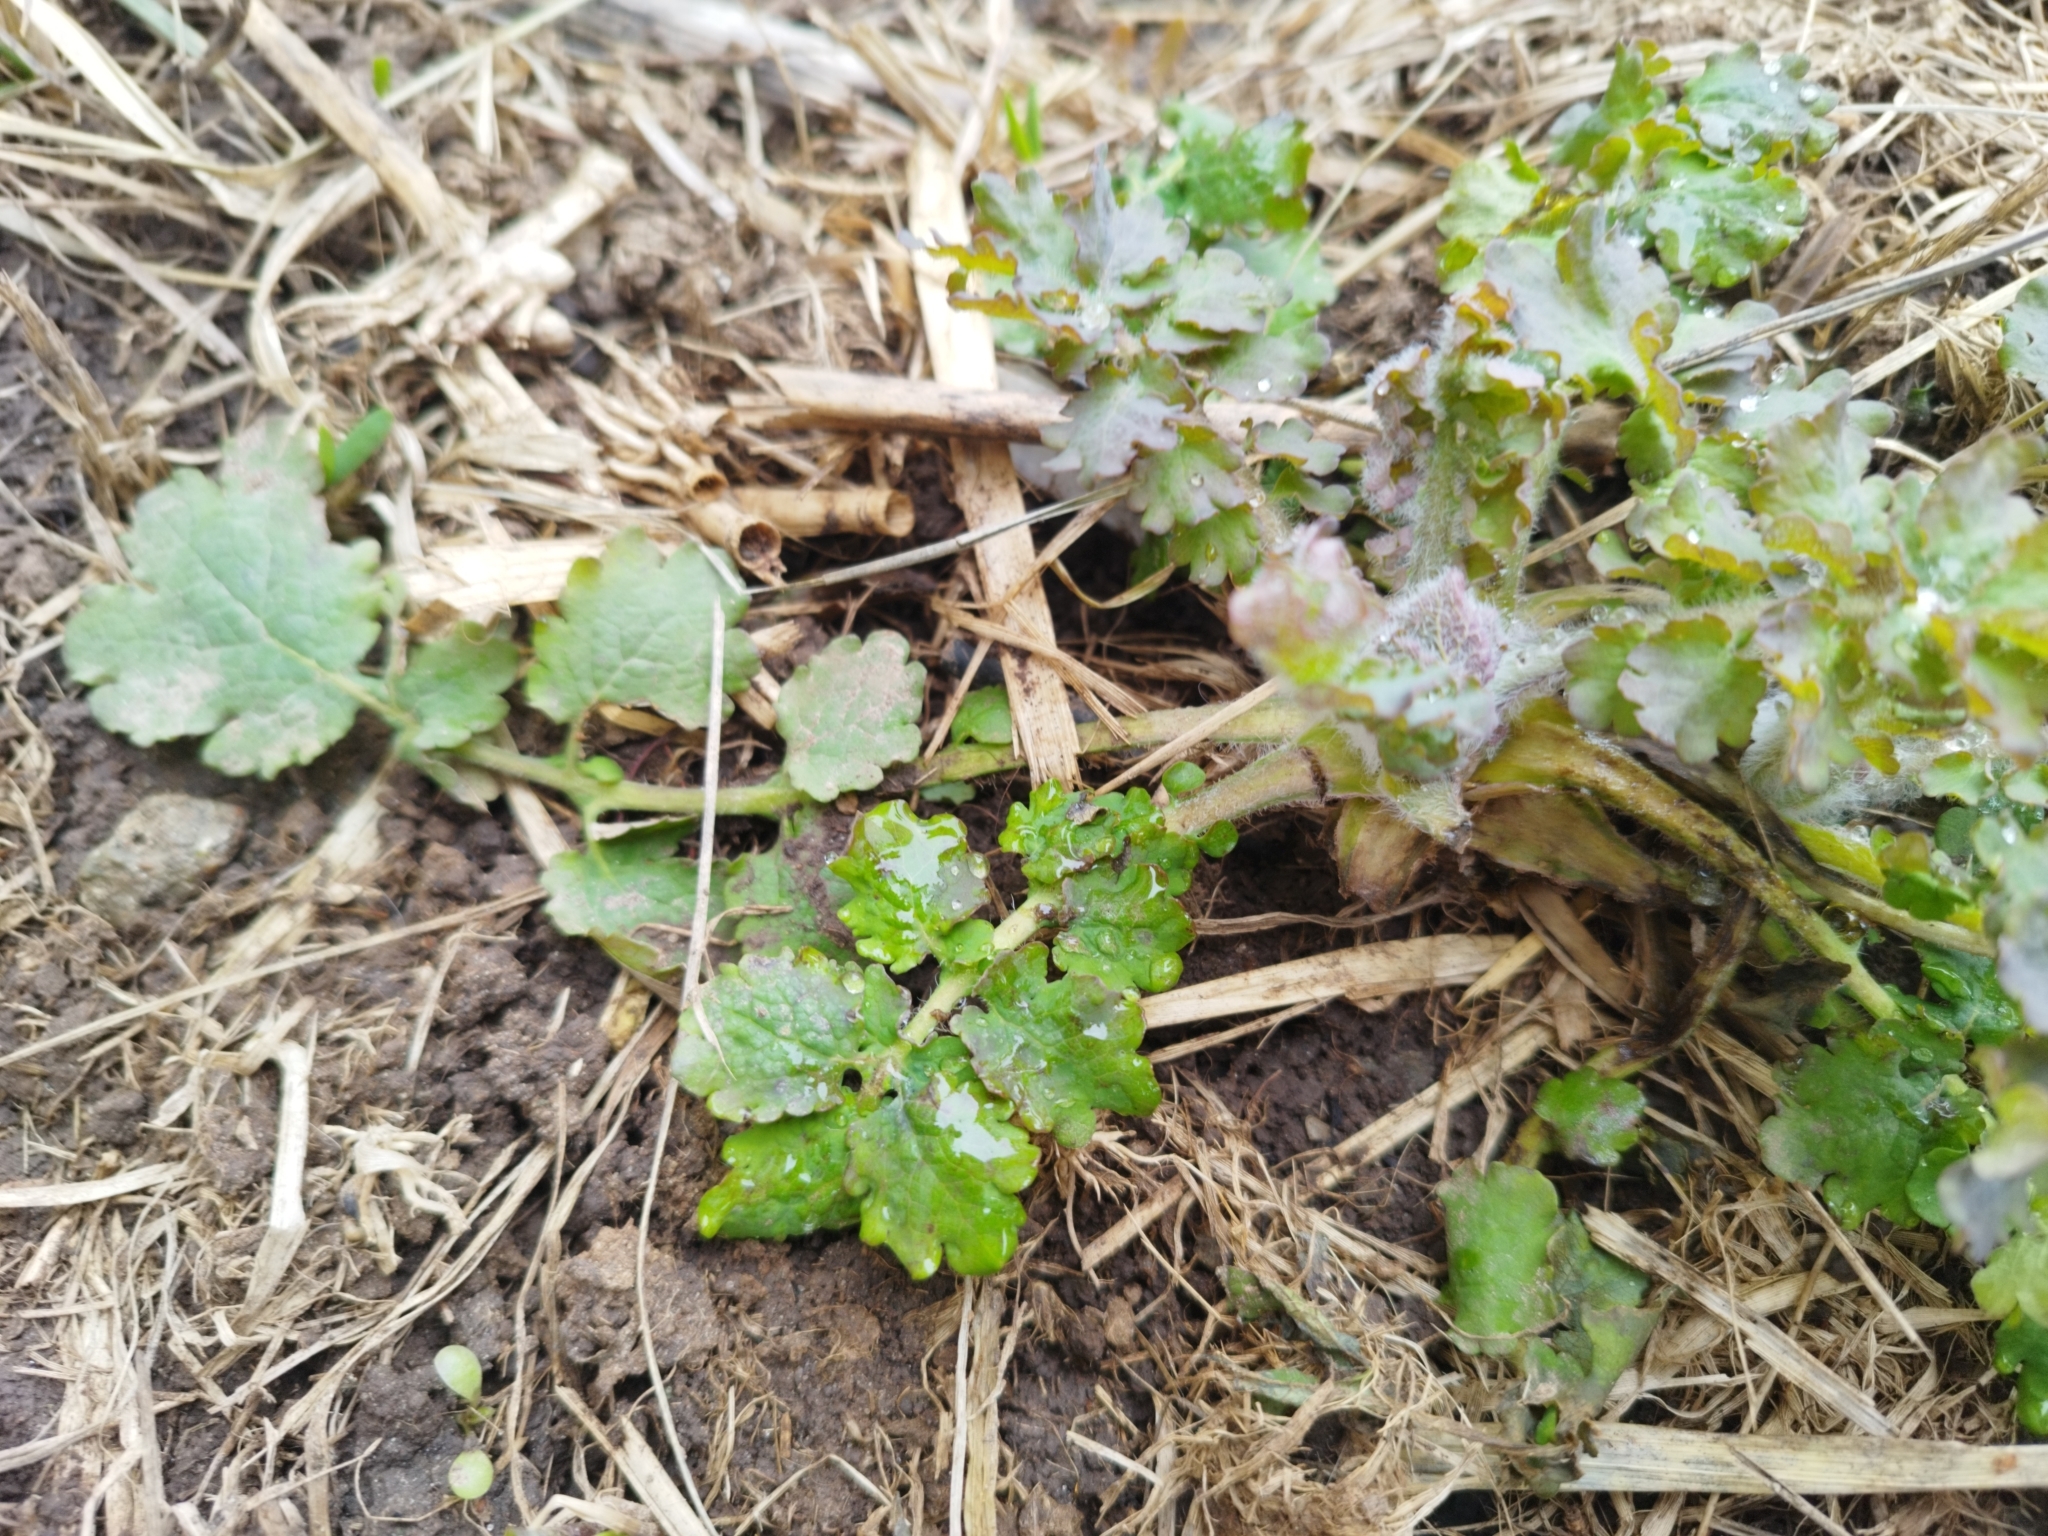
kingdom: Plantae
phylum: Tracheophyta
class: Magnoliopsida
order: Ranunculales
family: Papaveraceae
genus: Chelidonium
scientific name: Chelidonium majus
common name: Greater celandine
